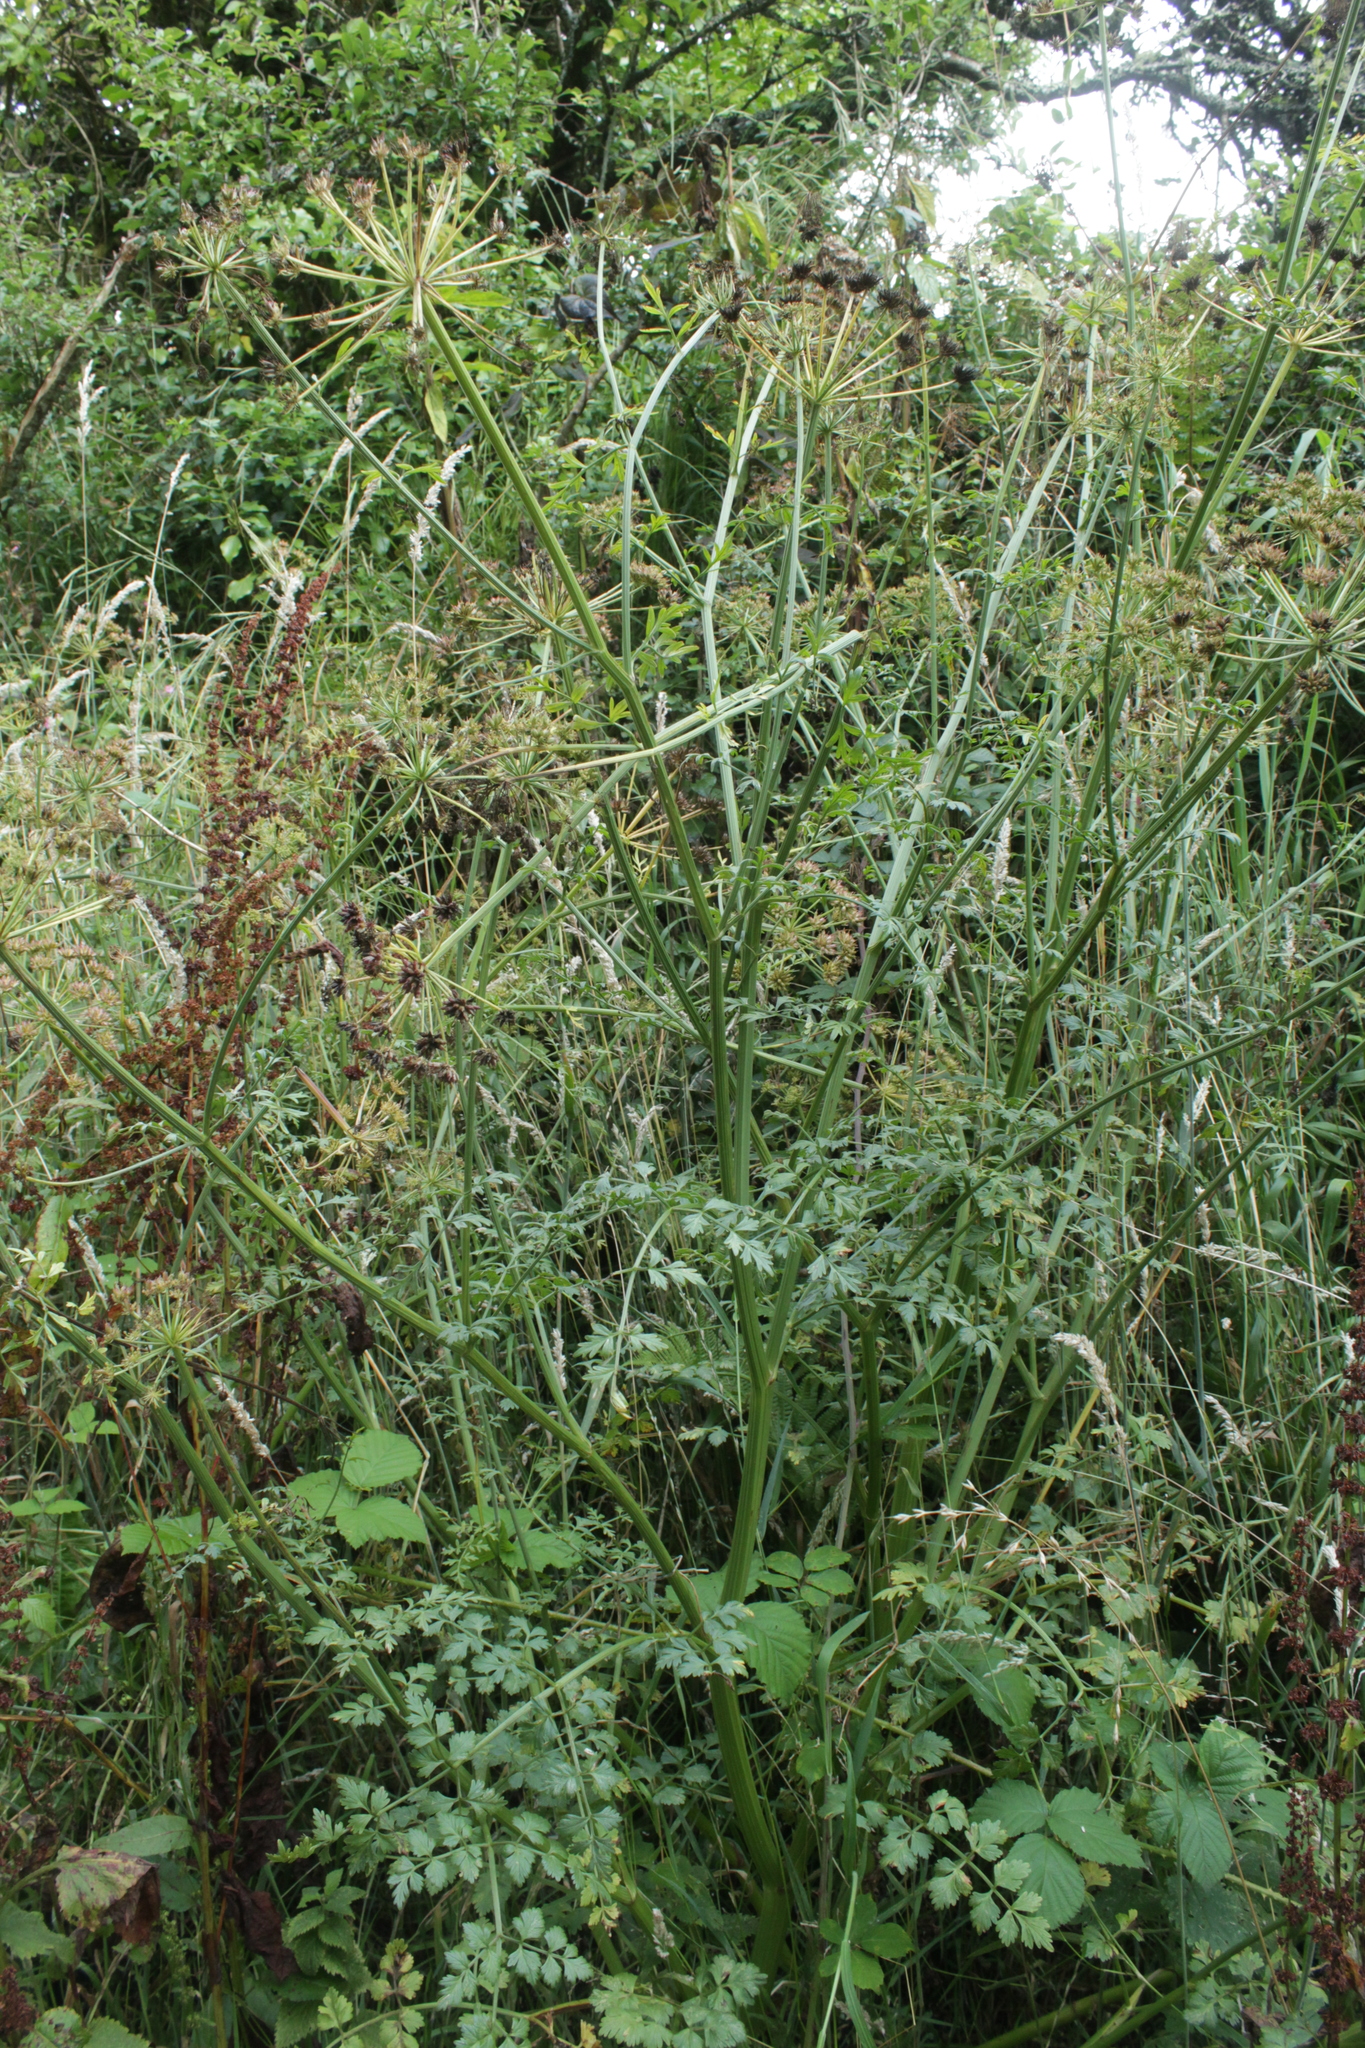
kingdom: Plantae
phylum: Tracheophyta
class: Magnoliopsida
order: Apiales
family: Apiaceae
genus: Oenanthe
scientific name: Oenanthe crocata
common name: Hemlock water-dropwort
